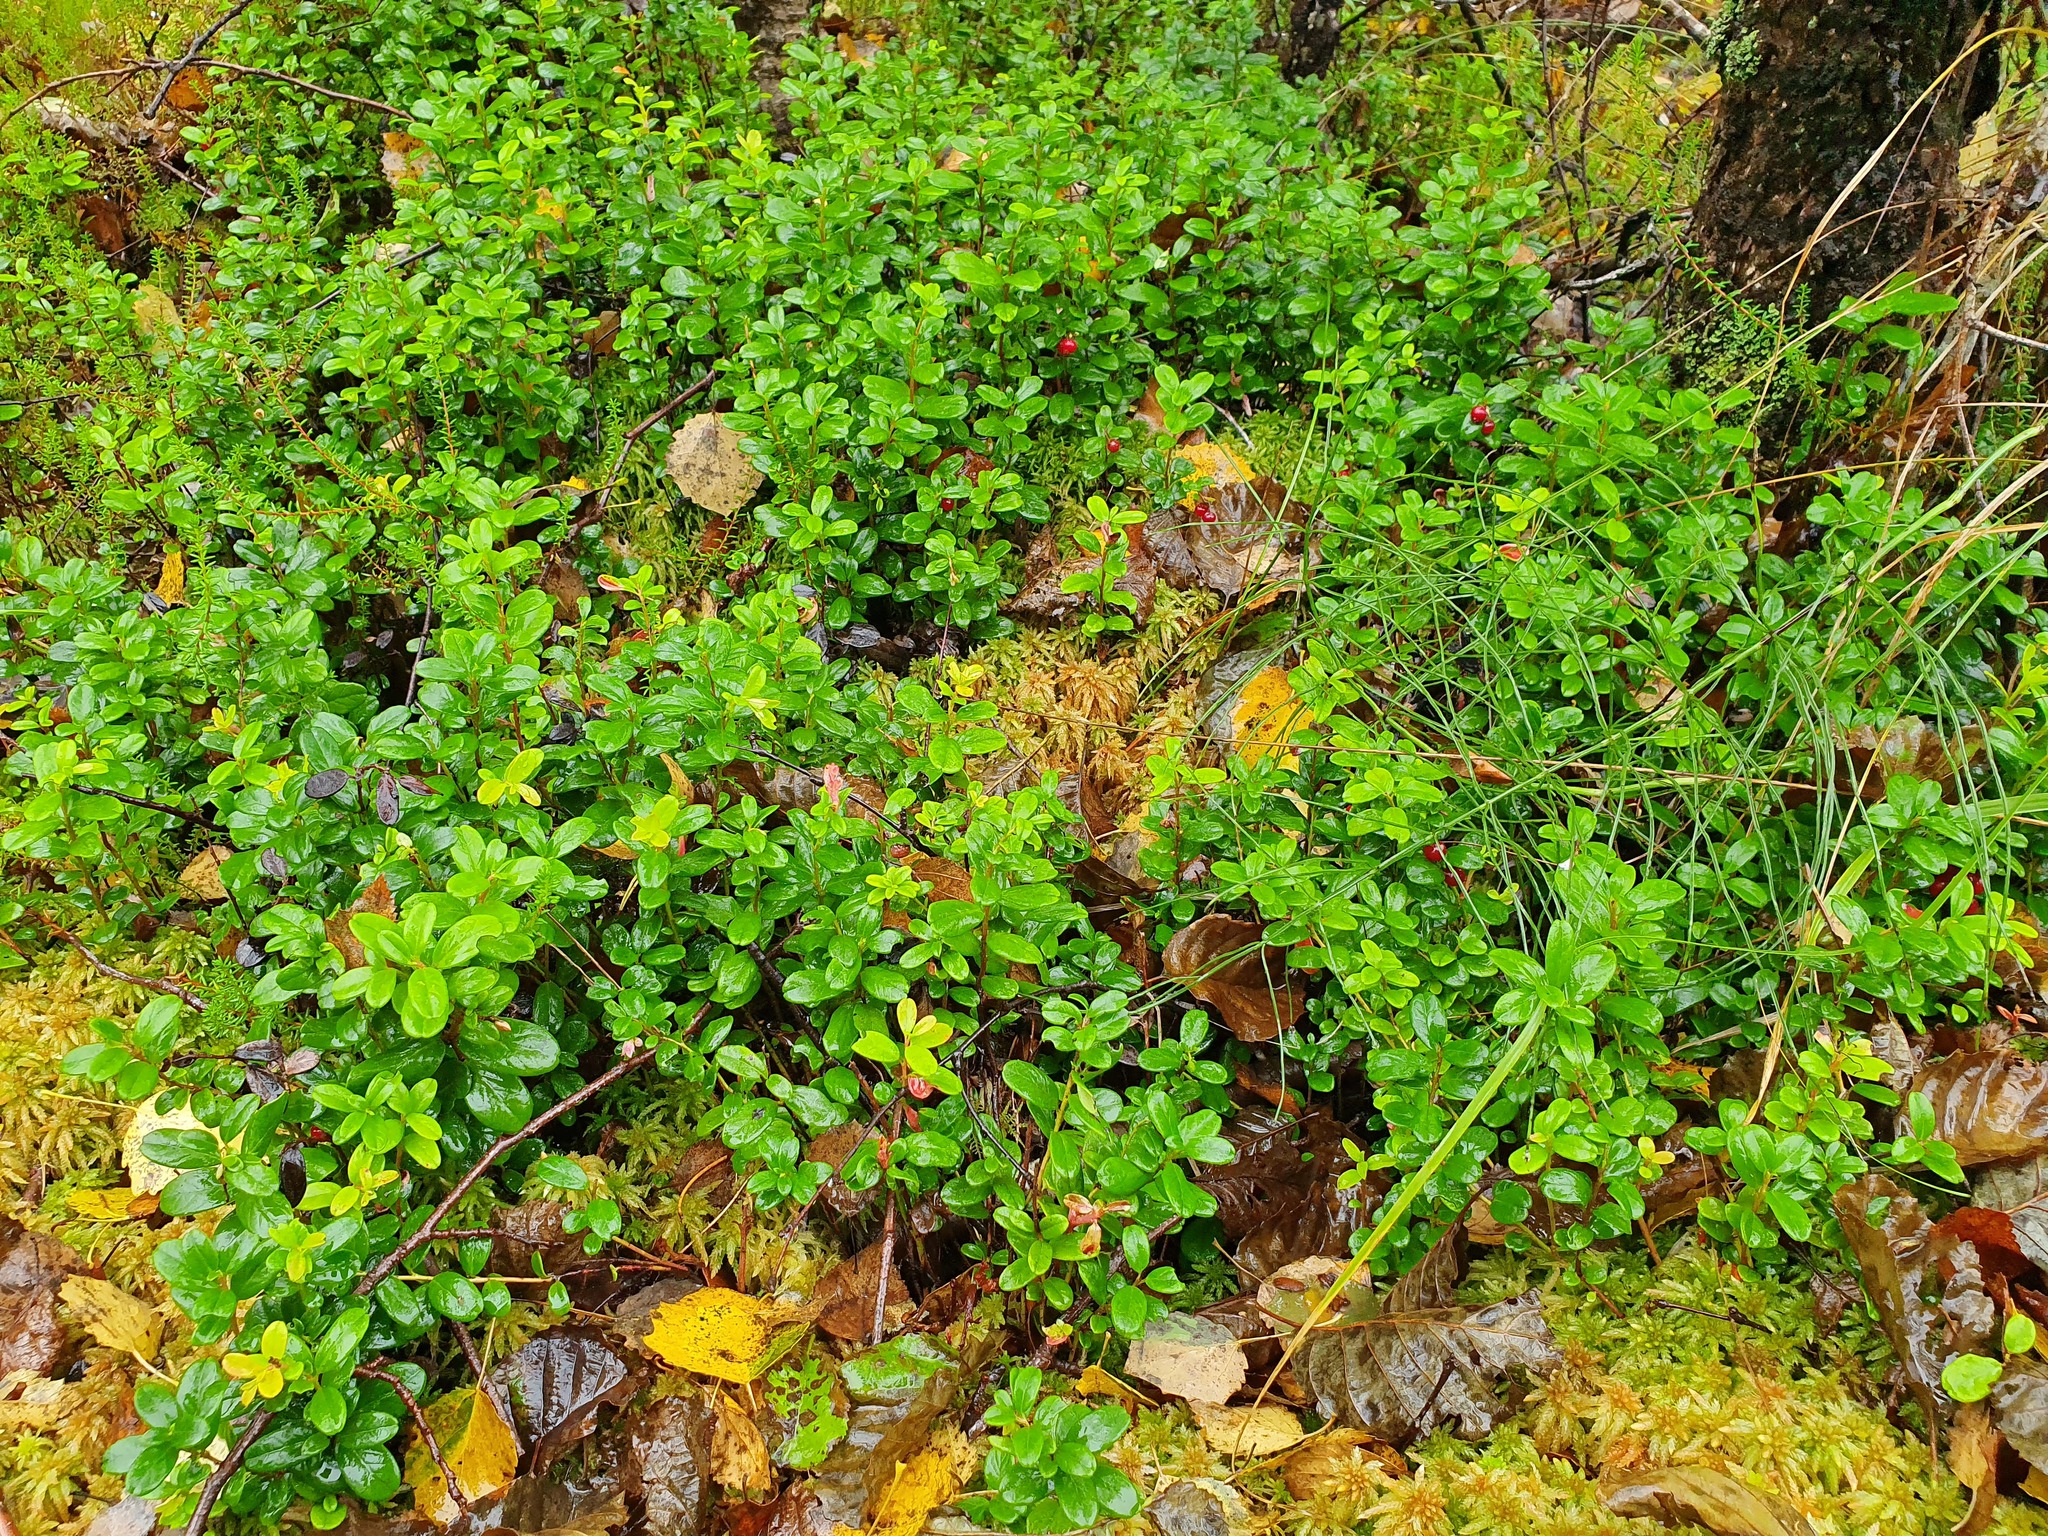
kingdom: Plantae
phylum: Tracheophyta
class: Magnoliopsida
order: Ericales
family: Ericaceae
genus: Vaccinium
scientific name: Vaccinium vitis-idaea
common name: Cowberry
